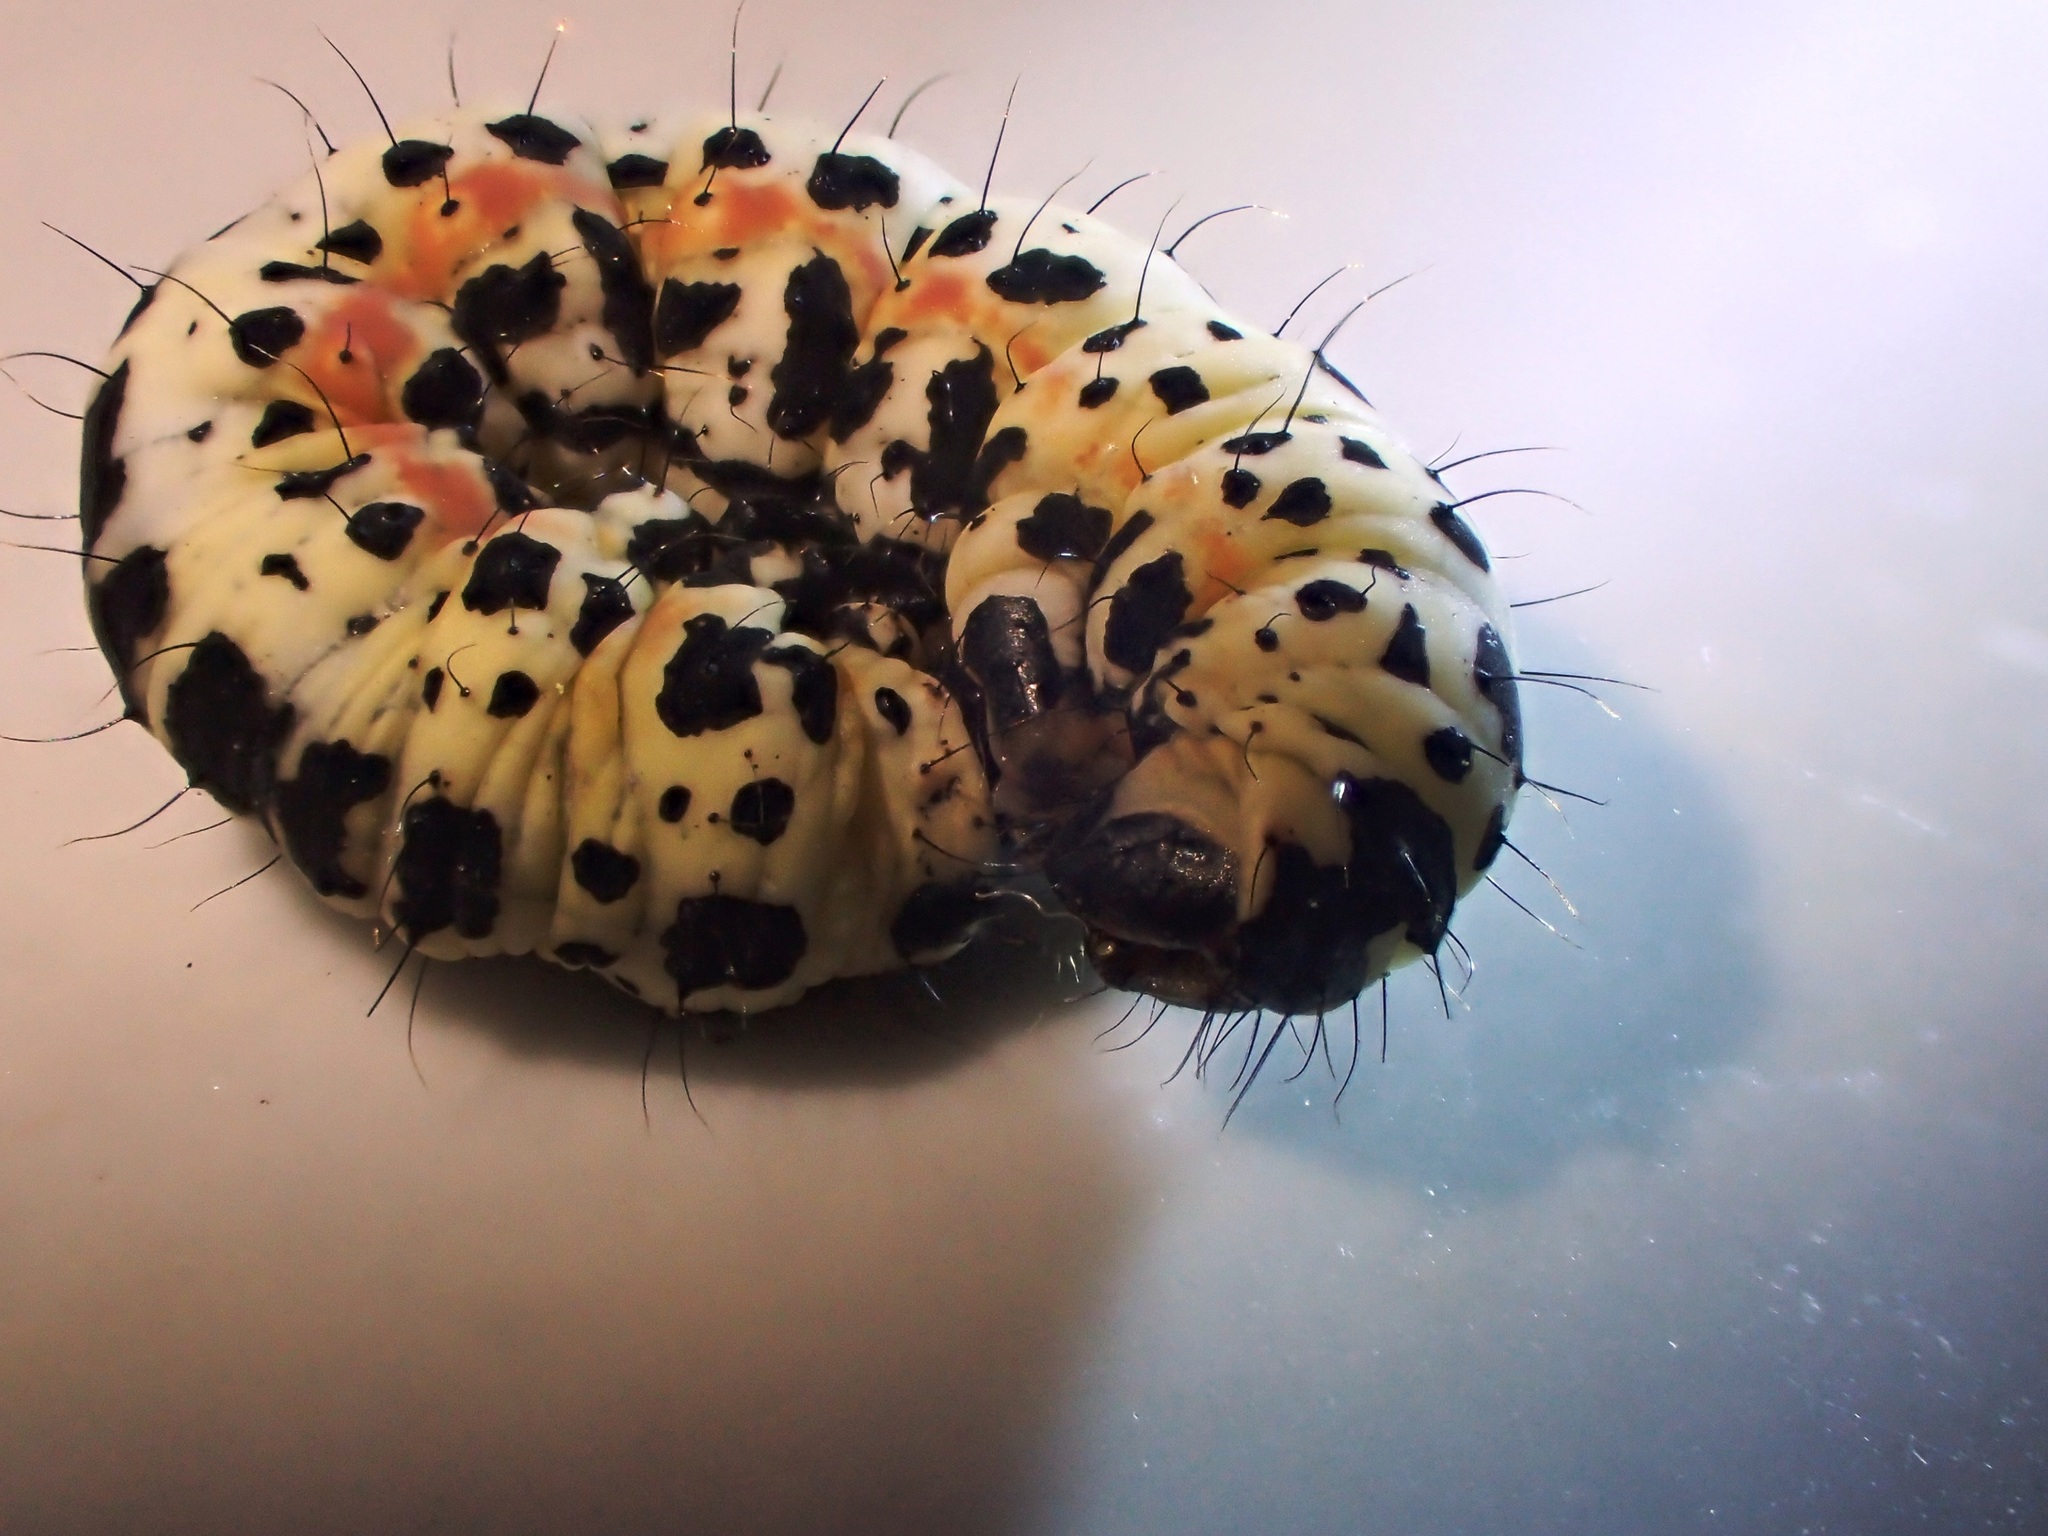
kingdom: Animalia
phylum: Arthropoda
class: Insecta
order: Lepidoptera
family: Geometridae
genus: Abraxas
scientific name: Abraxas grossulariata
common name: Magpie
